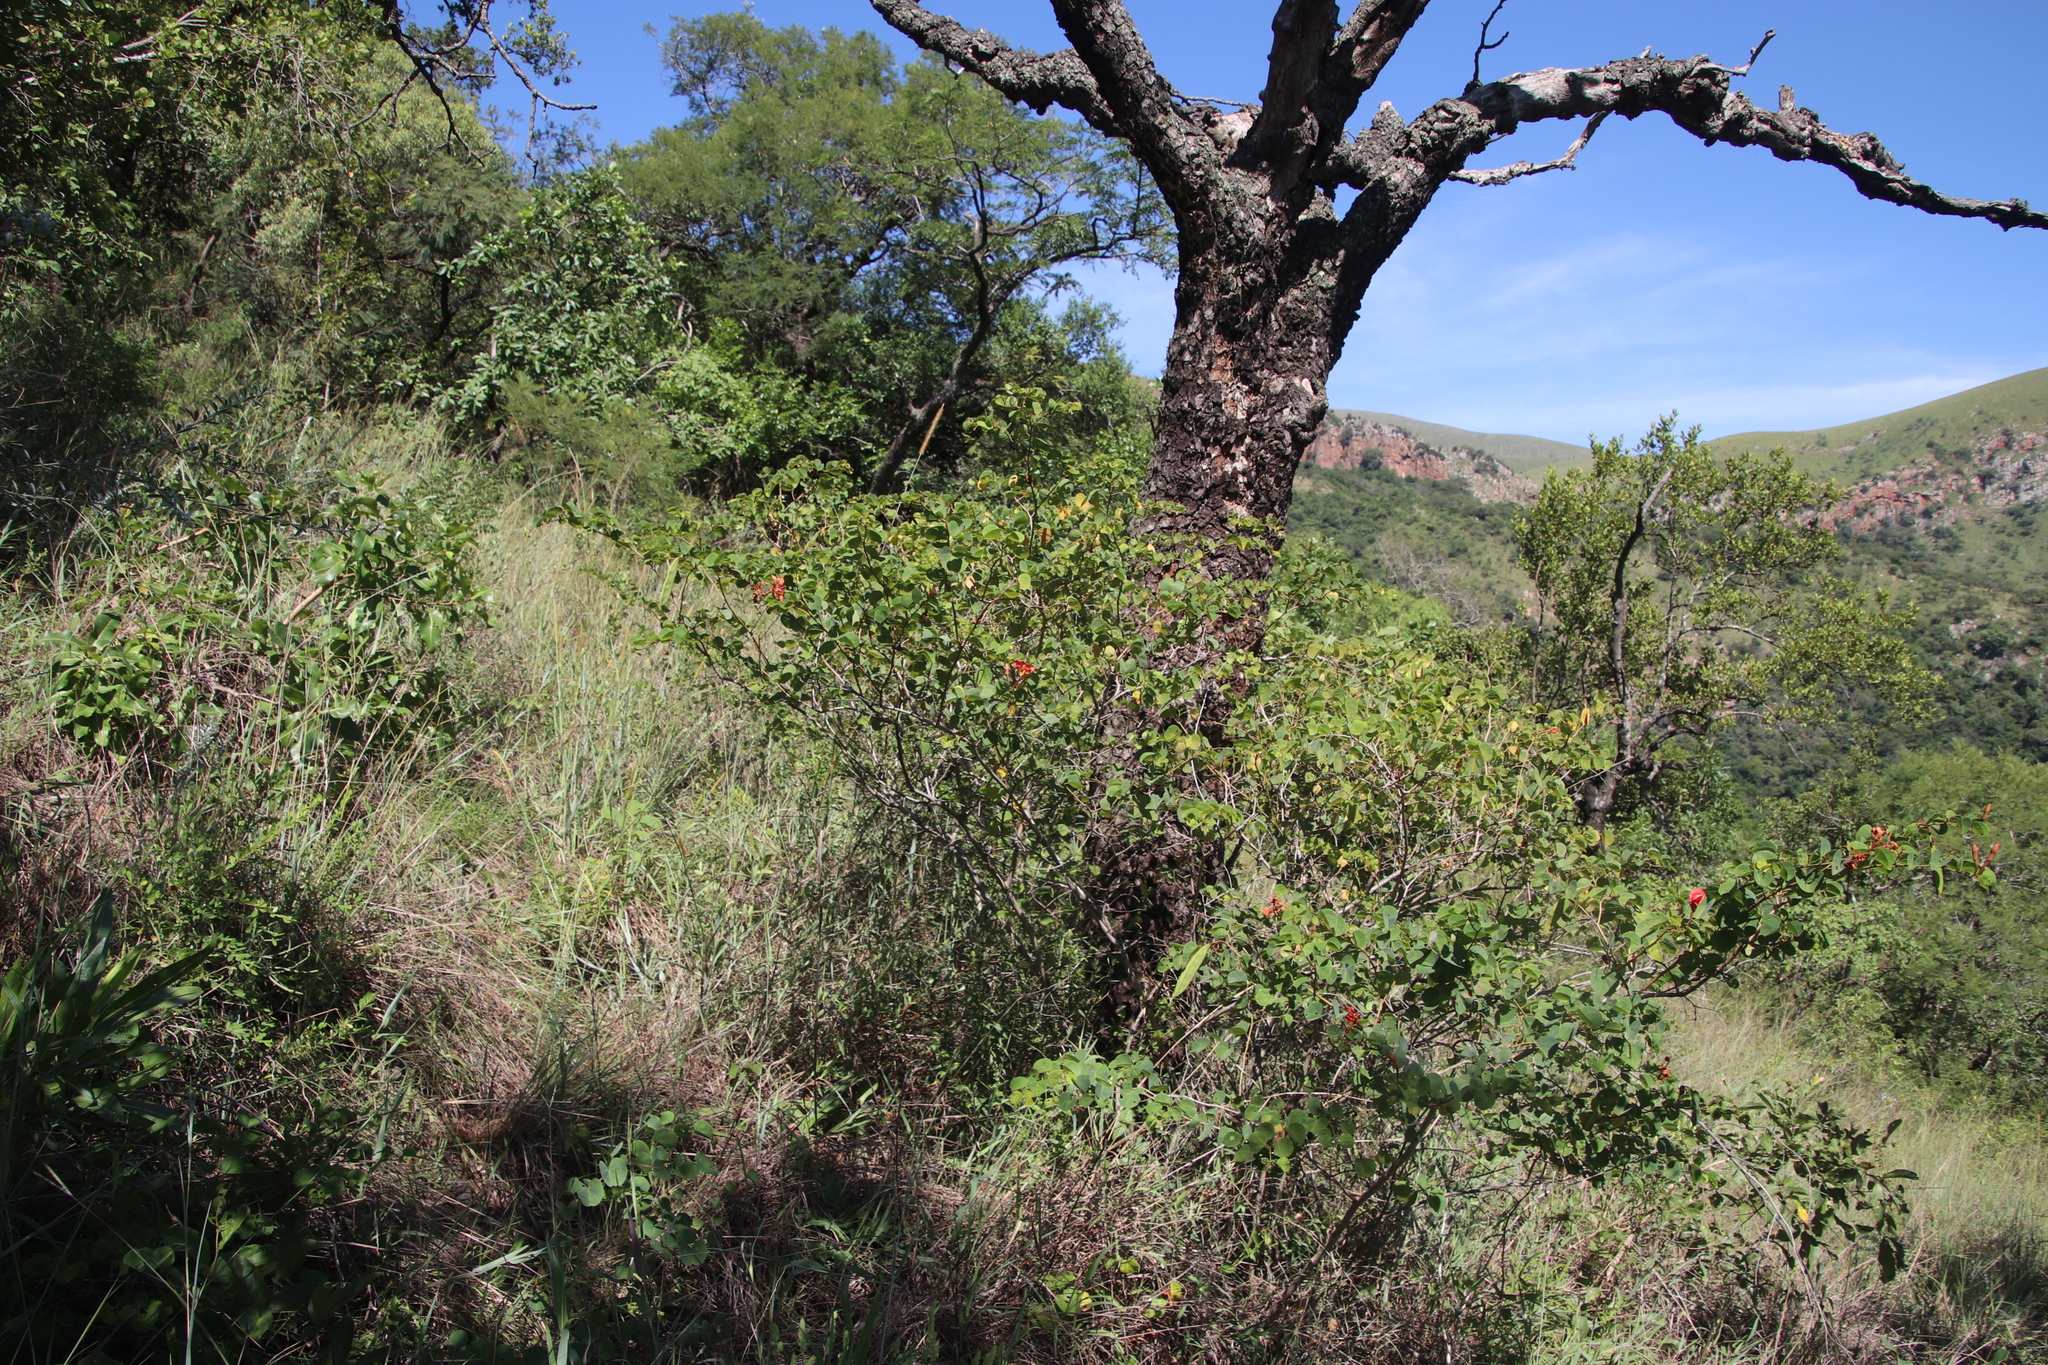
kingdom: Plantae
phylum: Tracheophyta
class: Magnoliopsida
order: Fabales
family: Fabaceae
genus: Bauhinia
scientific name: Bauhinia galpinii
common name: African plume
